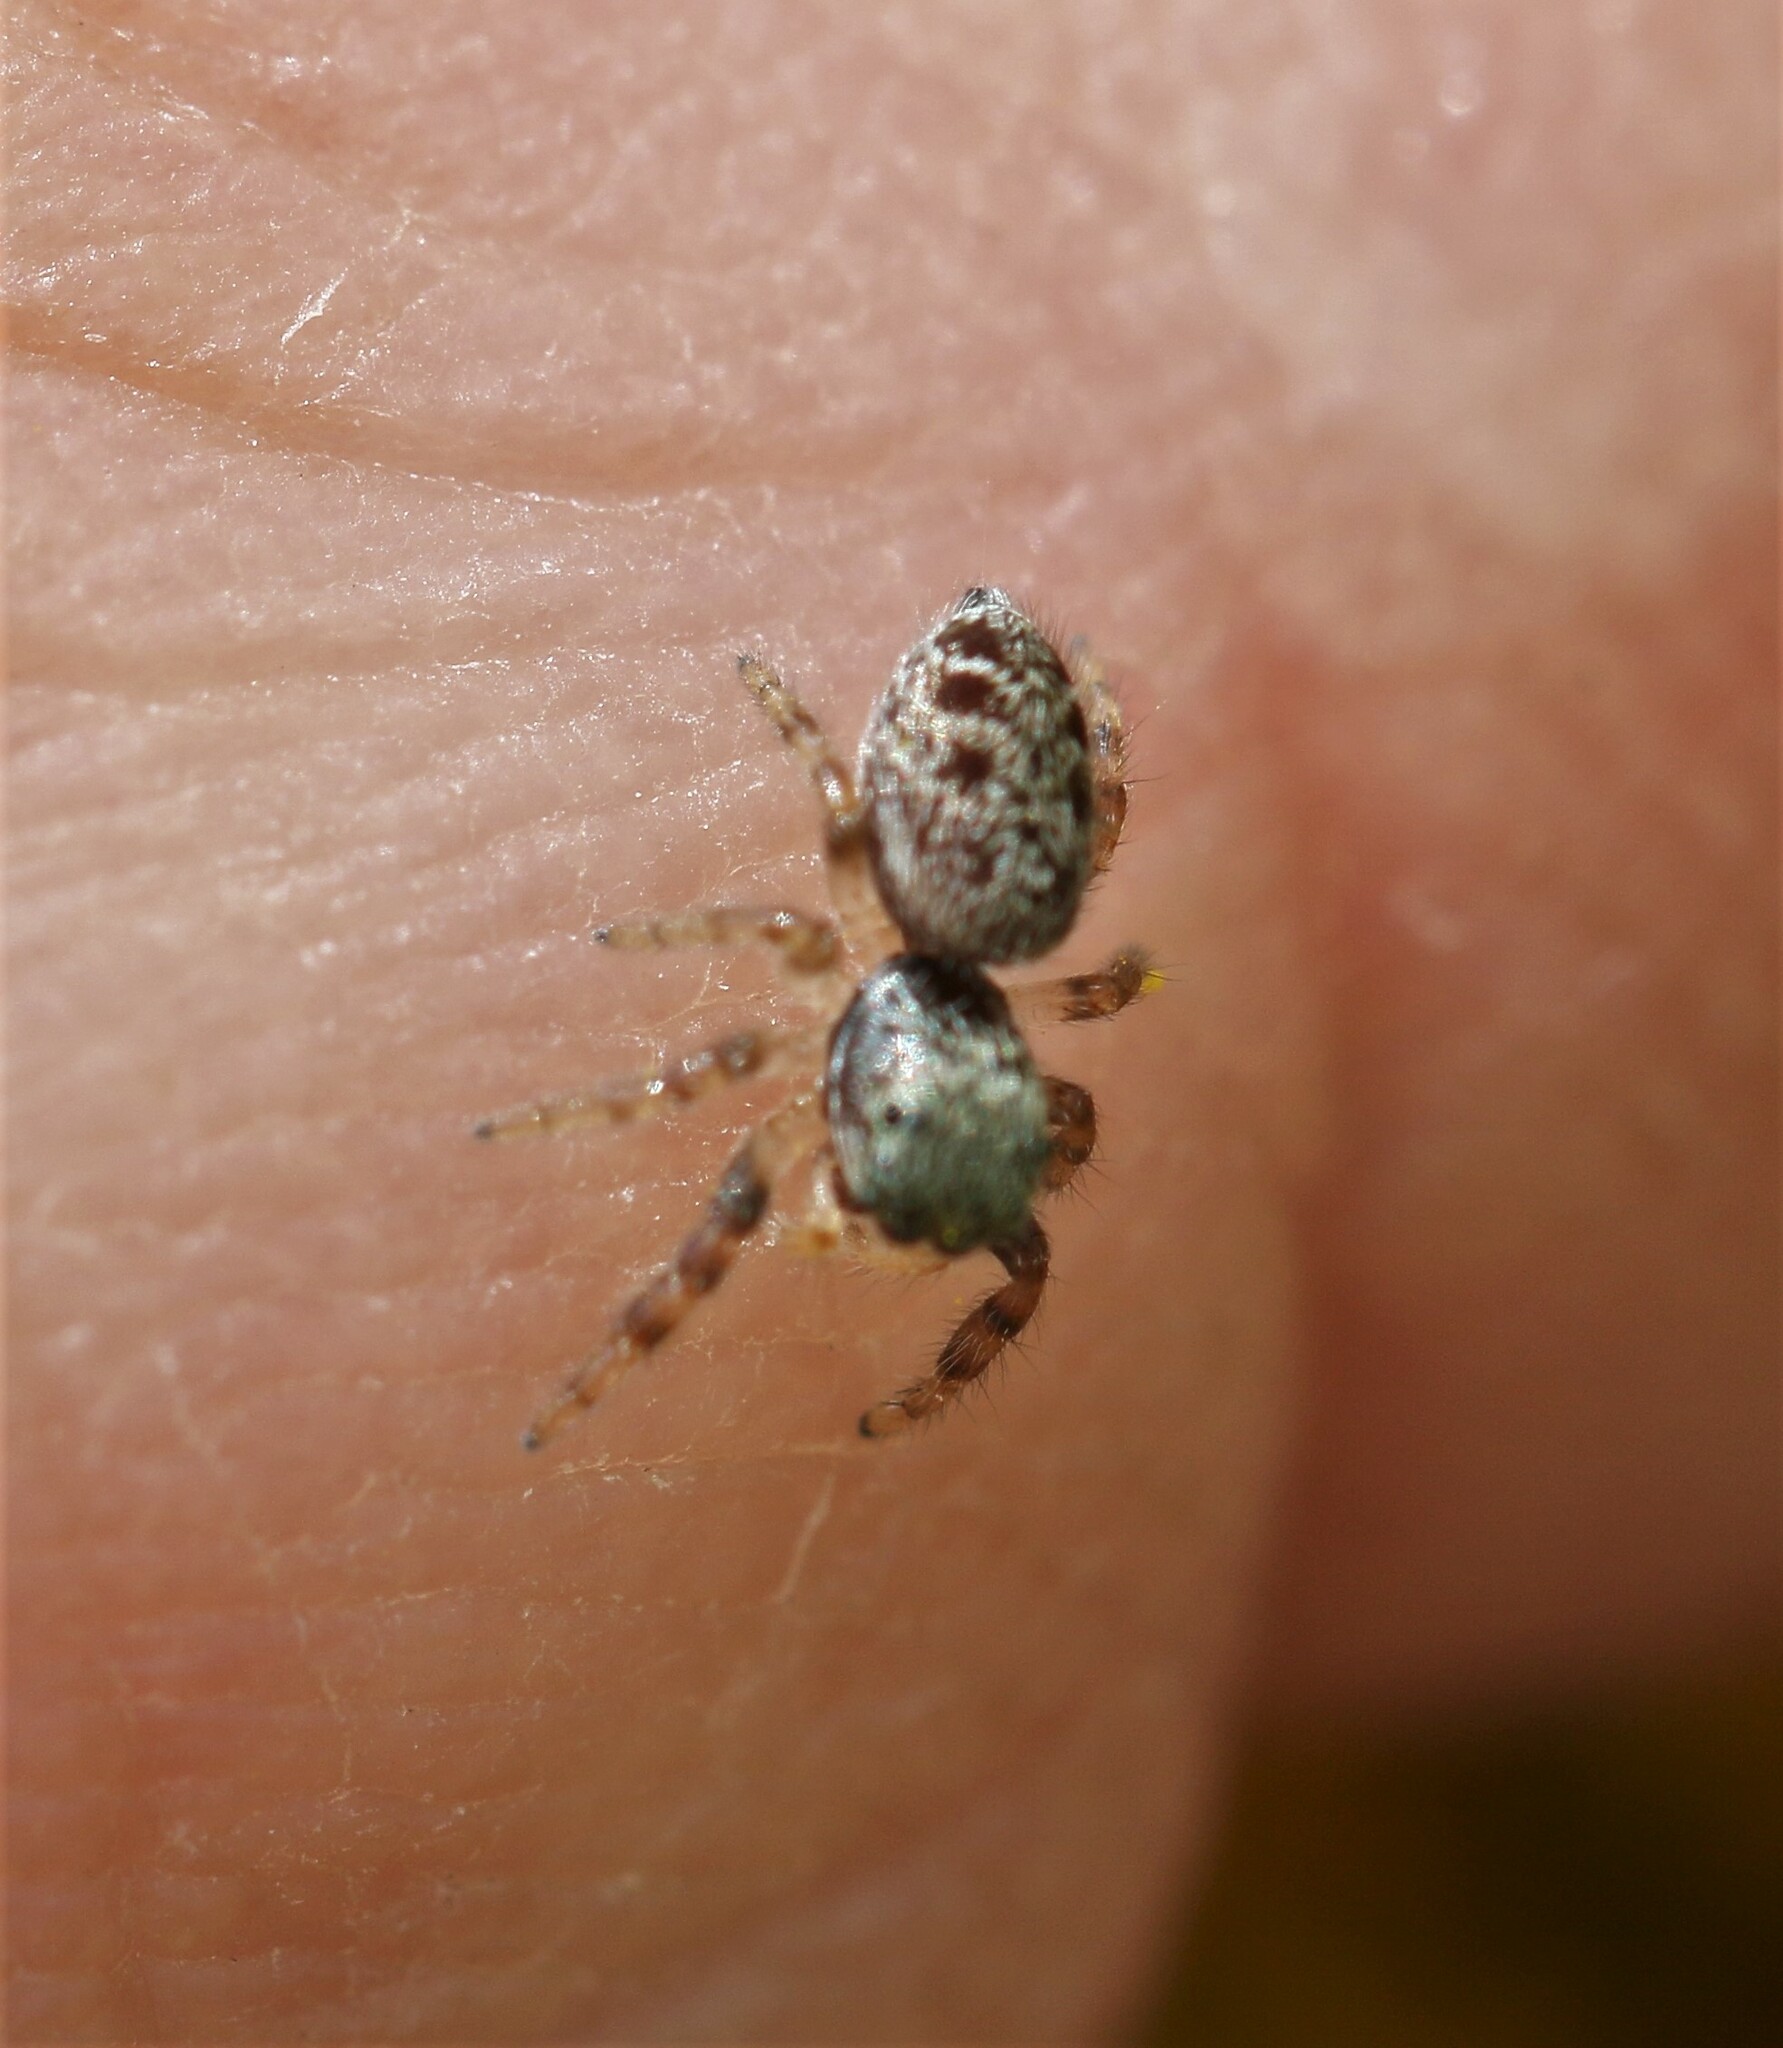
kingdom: Animalia
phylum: Arthropoda
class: Arachnida
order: Araneae
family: Salticidae
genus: Pelegrina
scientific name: Pelegrina proterva
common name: Common white-cheeked jumping spider
